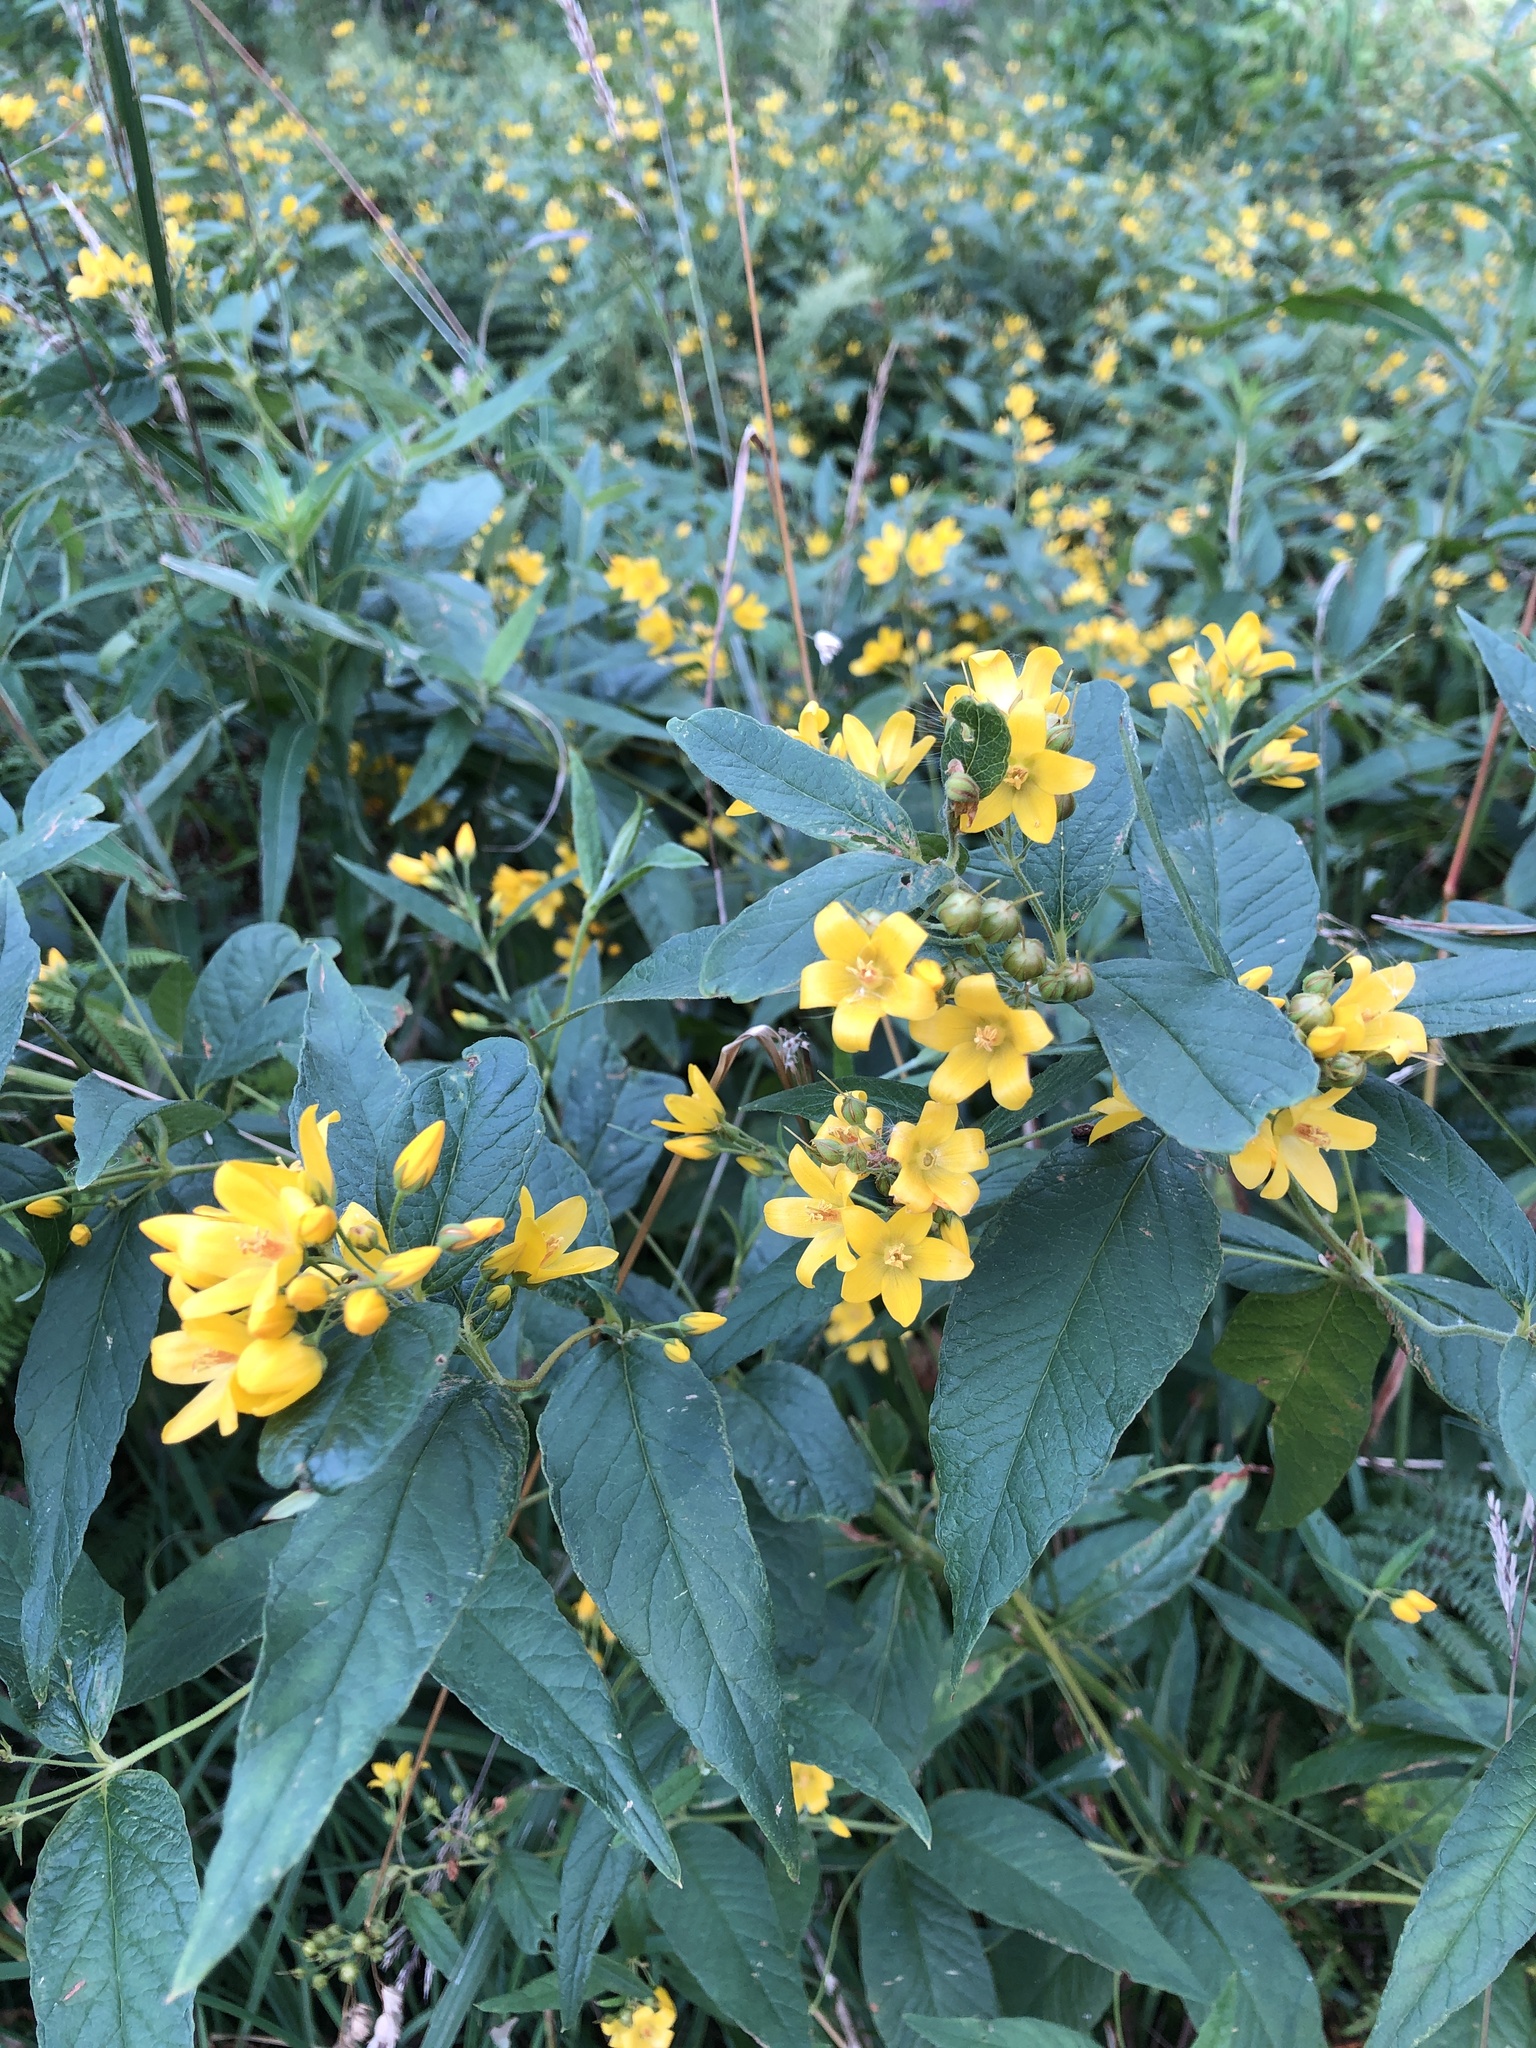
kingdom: Plantae
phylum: Tracheophyta
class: Magnoliopsida
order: Ericales
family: Primulaceae
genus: Lysimachia
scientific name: Lysimachia vulgaris
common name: Yellow loosestrife
